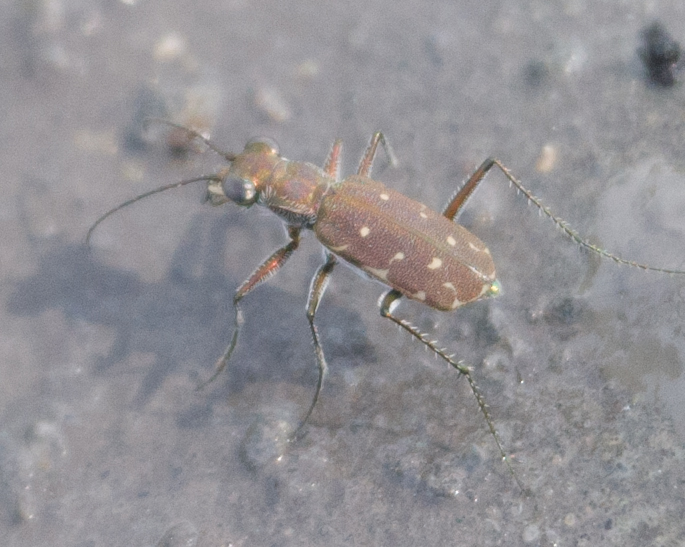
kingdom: Animalia
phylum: Arthropoda
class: Insecta
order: Coleoptera
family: Carabidae
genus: Myriochila
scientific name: Myriochila melancholica
